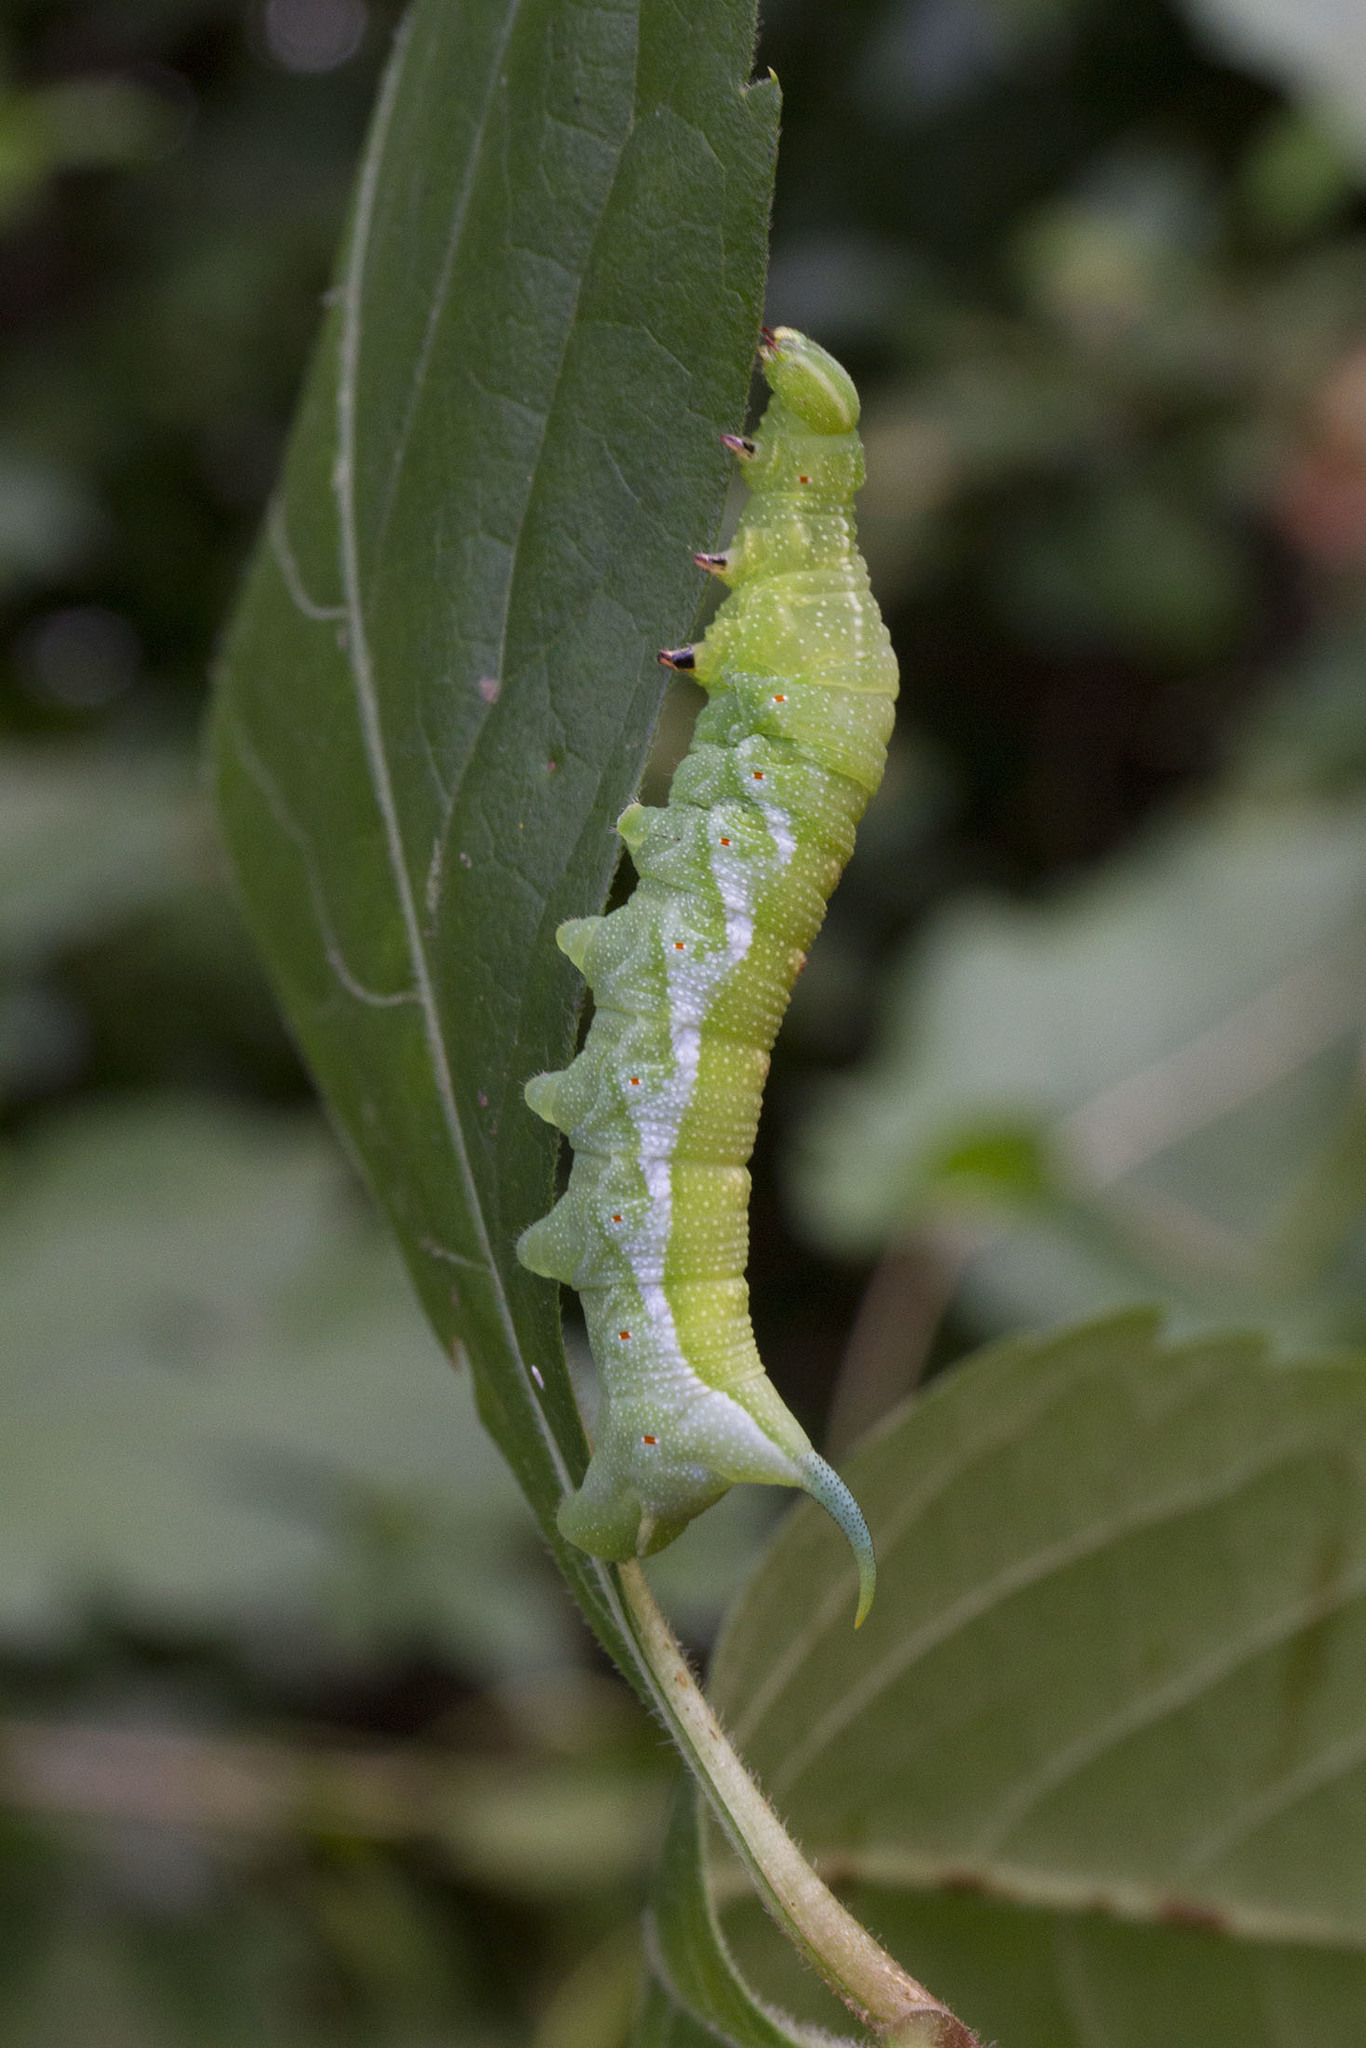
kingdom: Animalia
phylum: Arthropoda
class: Insecta
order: Lepidoptera
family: Sphingidae
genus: Darapsa
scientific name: Darapsa myron
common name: Hog sphinx
